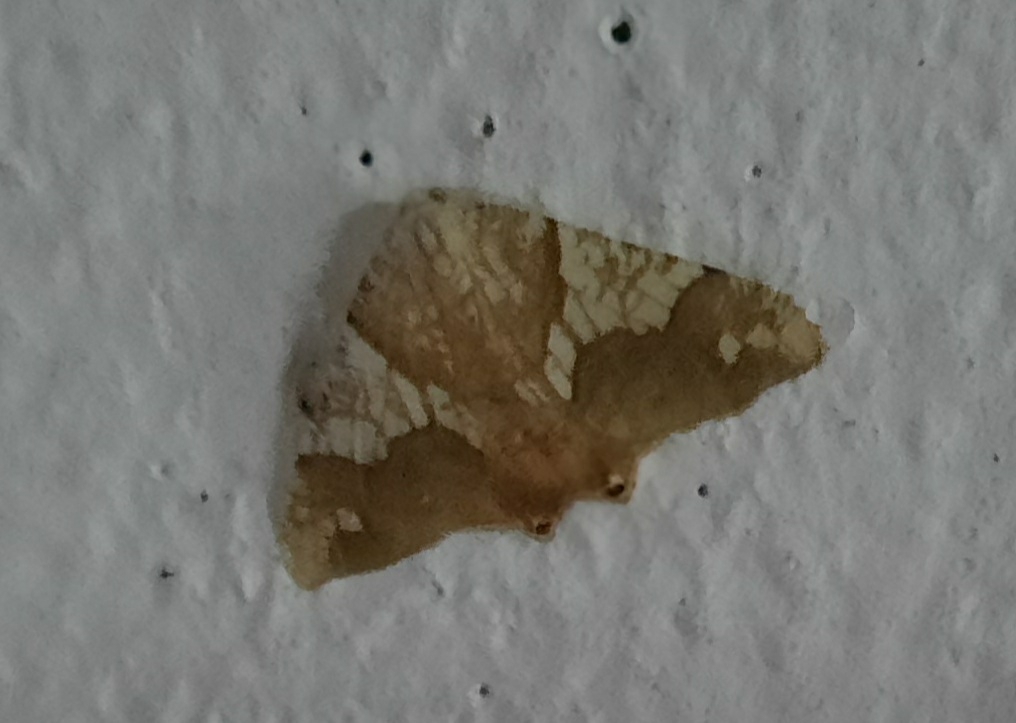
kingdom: Animalia
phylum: Arthropoda
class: Insecta
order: Lepidoptera
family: Geometridae
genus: Rindgeria
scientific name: Rindgeria ornata
